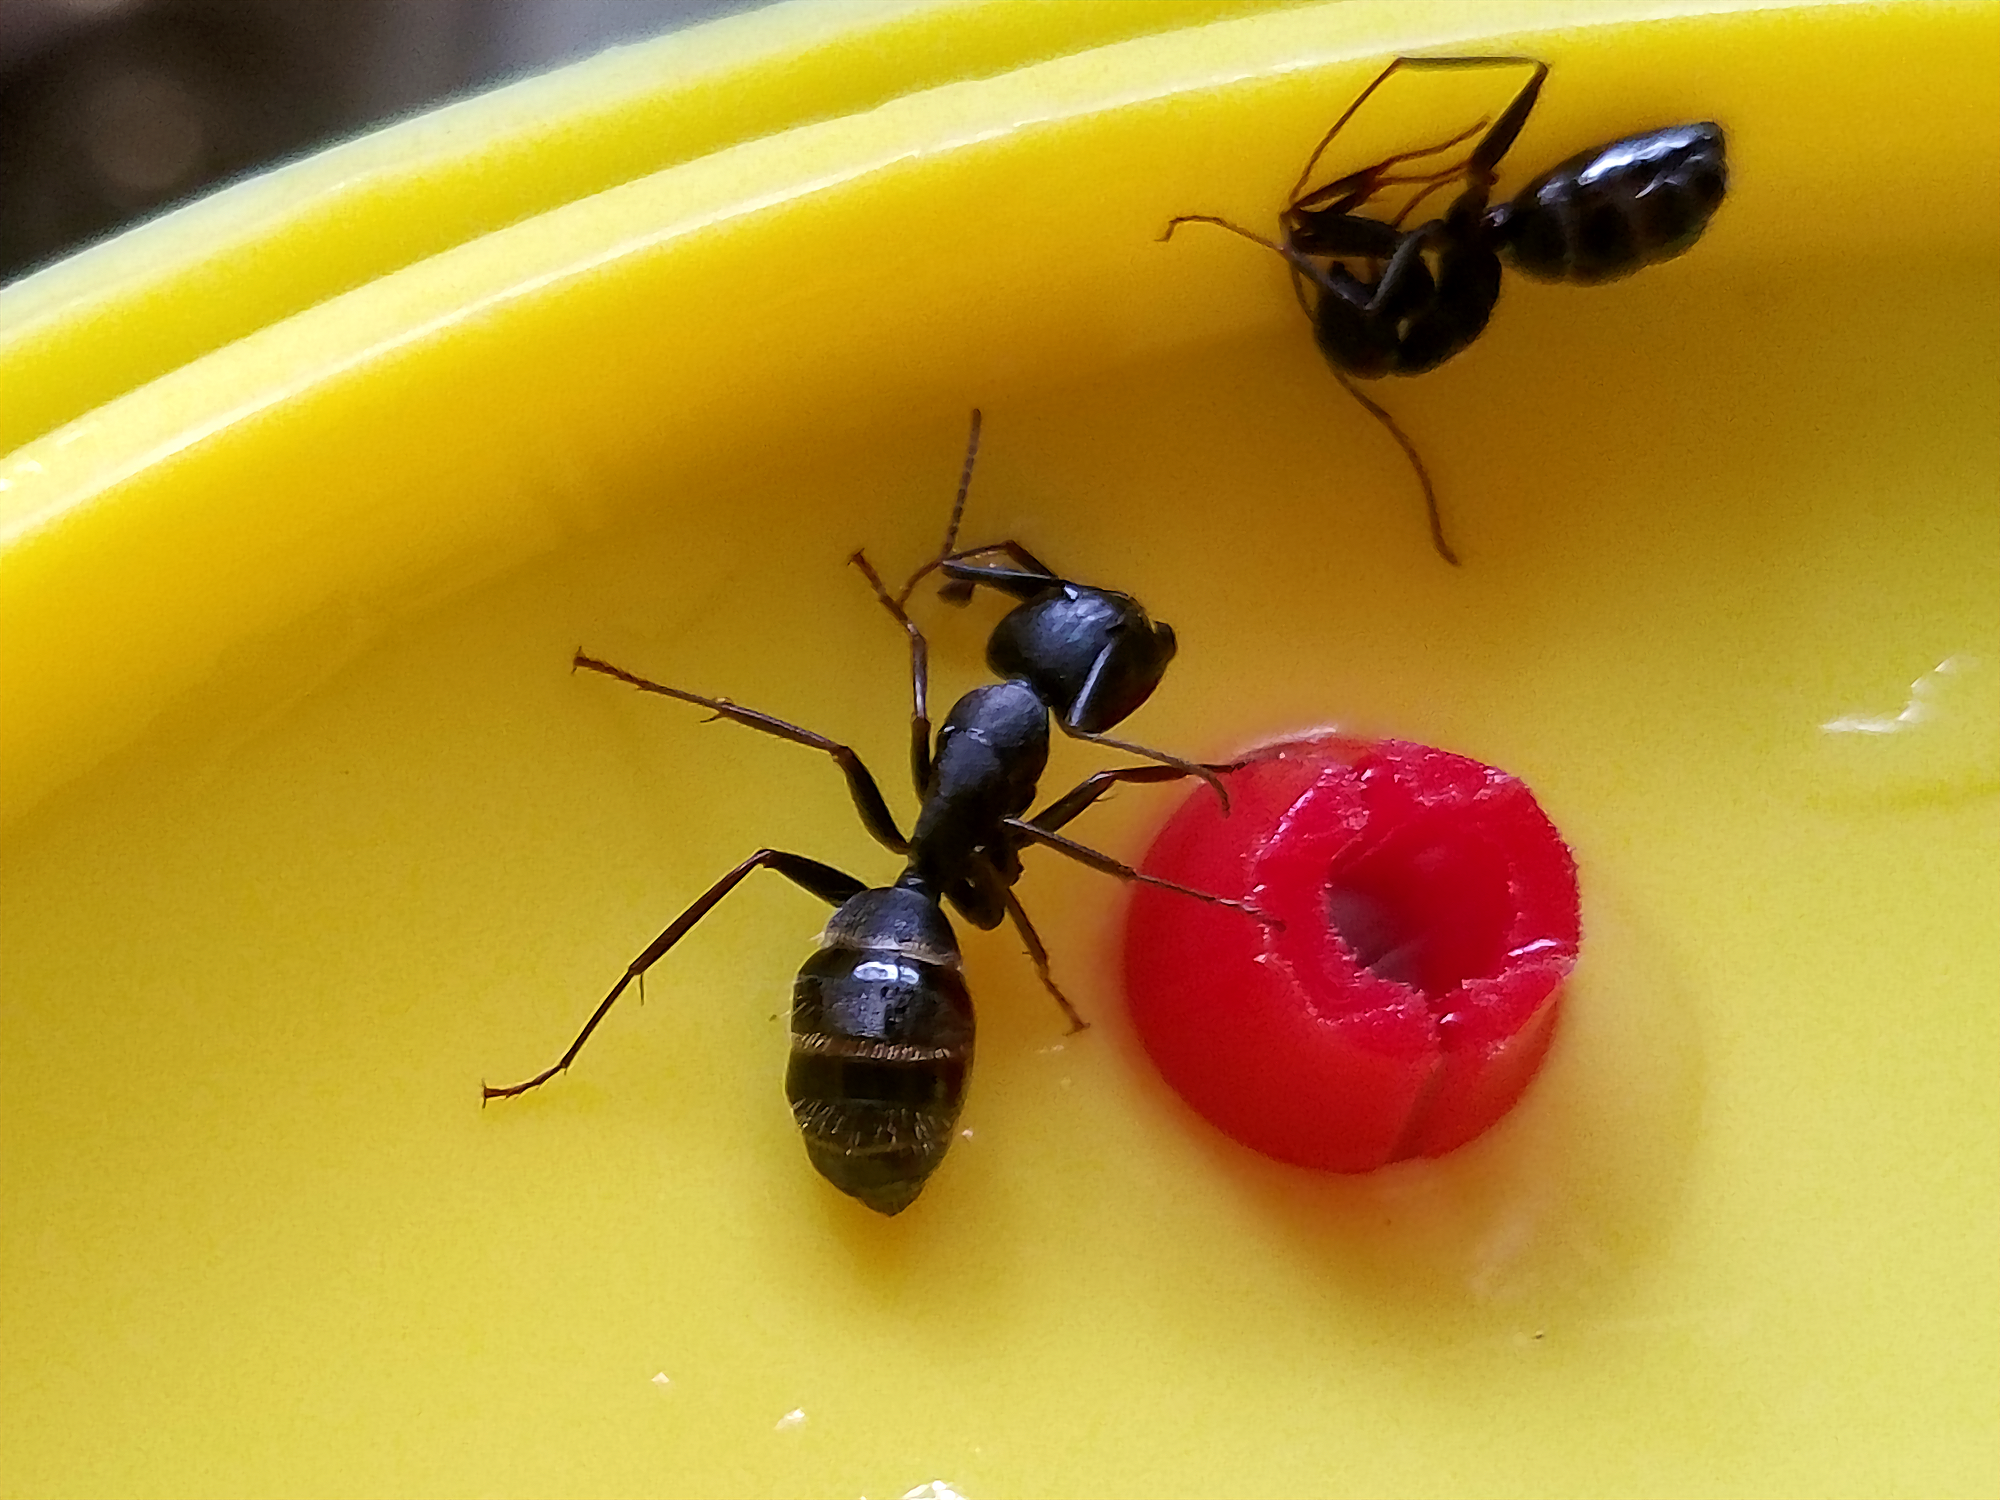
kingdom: Animalia
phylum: Arthropoda
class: Insecta
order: Hymenoptera
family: Formicidae
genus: Camponotus
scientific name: Camponotus pennsylvanicus
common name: Black carpenter ant
